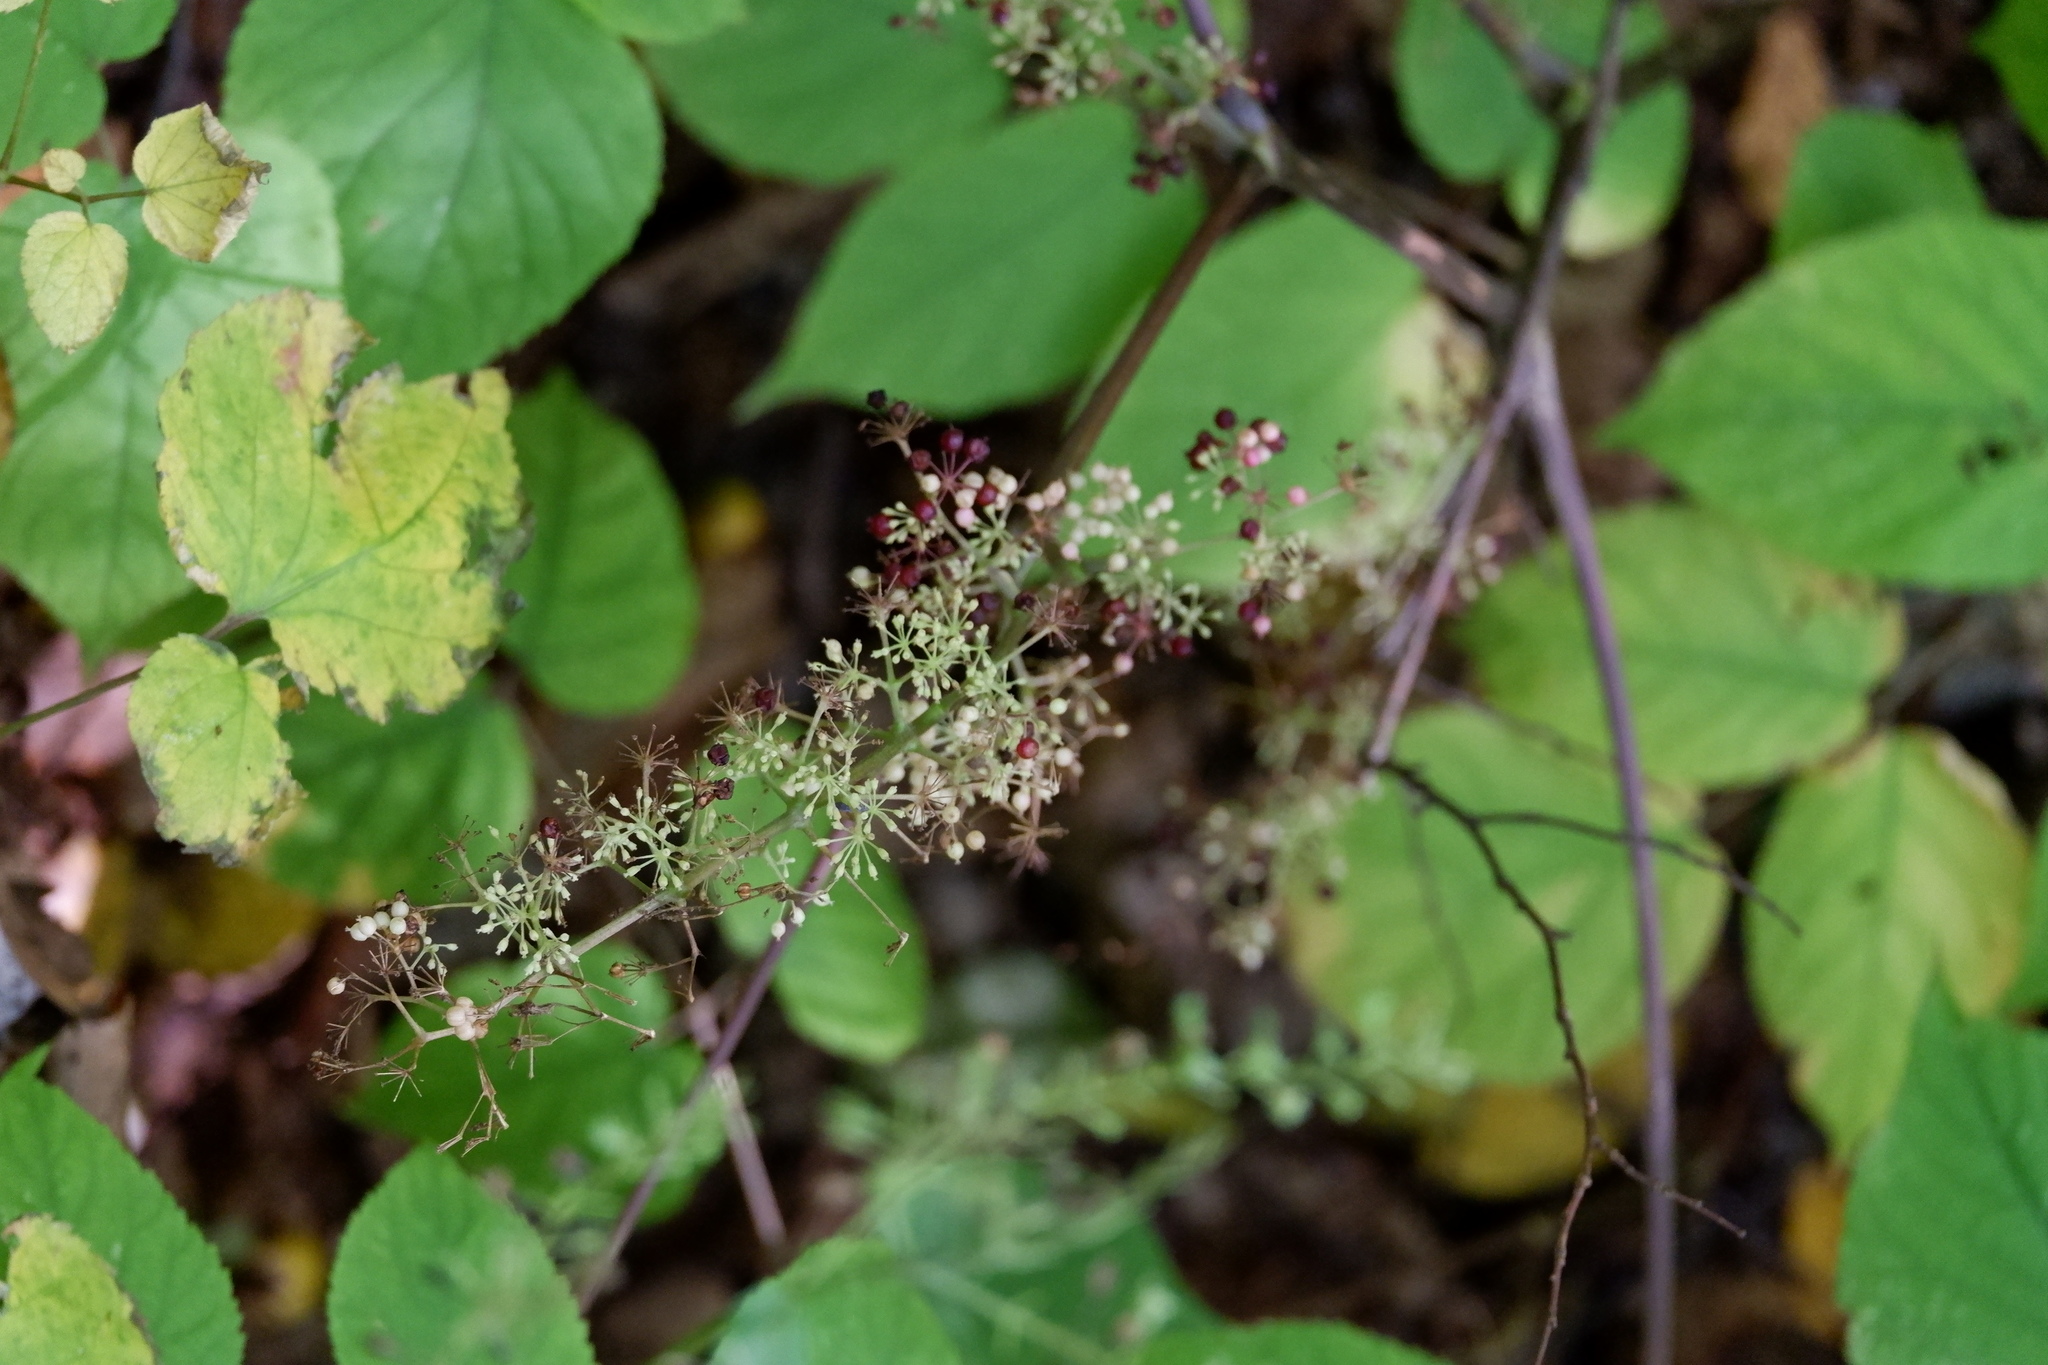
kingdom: Plantae
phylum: Tracheophyta
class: Magnoliopsida
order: Apiales
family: Araliaceae
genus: Aralia
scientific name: Aralia racemosa
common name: American-spikenard
